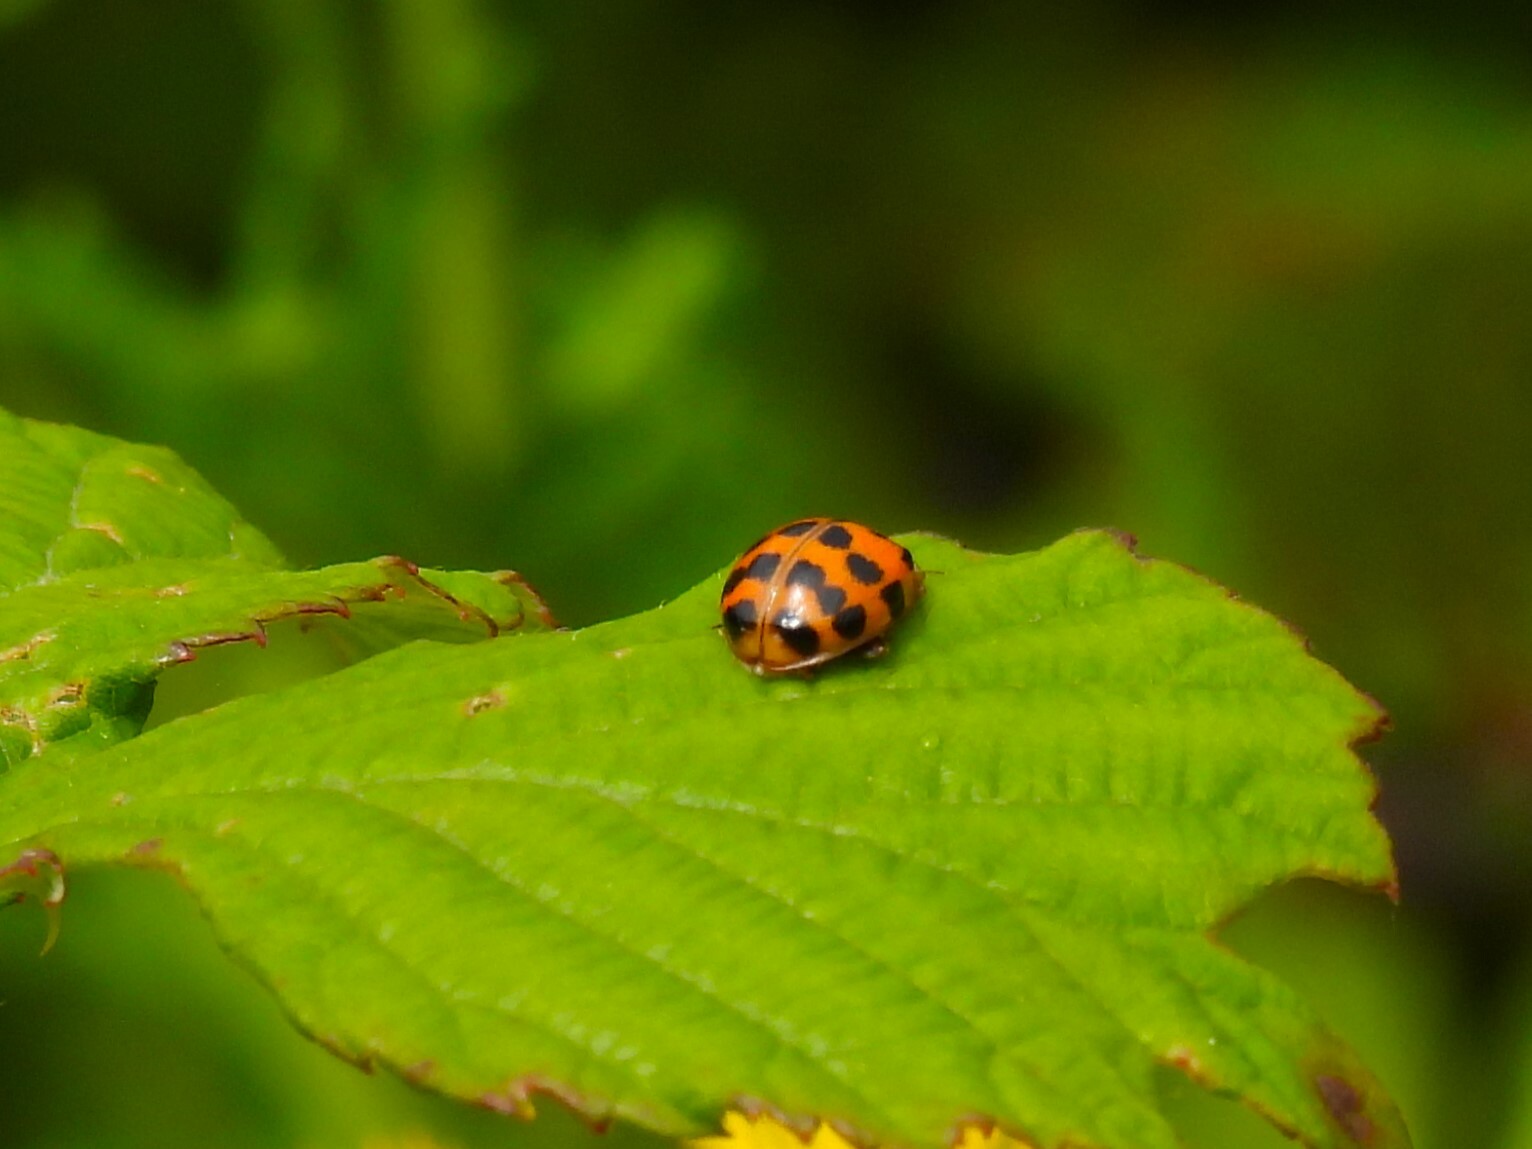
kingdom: Animalia
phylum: Arthropoda
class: Insecta
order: Coleoptera
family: Coccinellidae
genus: Harmonia
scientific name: Harmonia axyridis
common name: Harlequin ladybird
